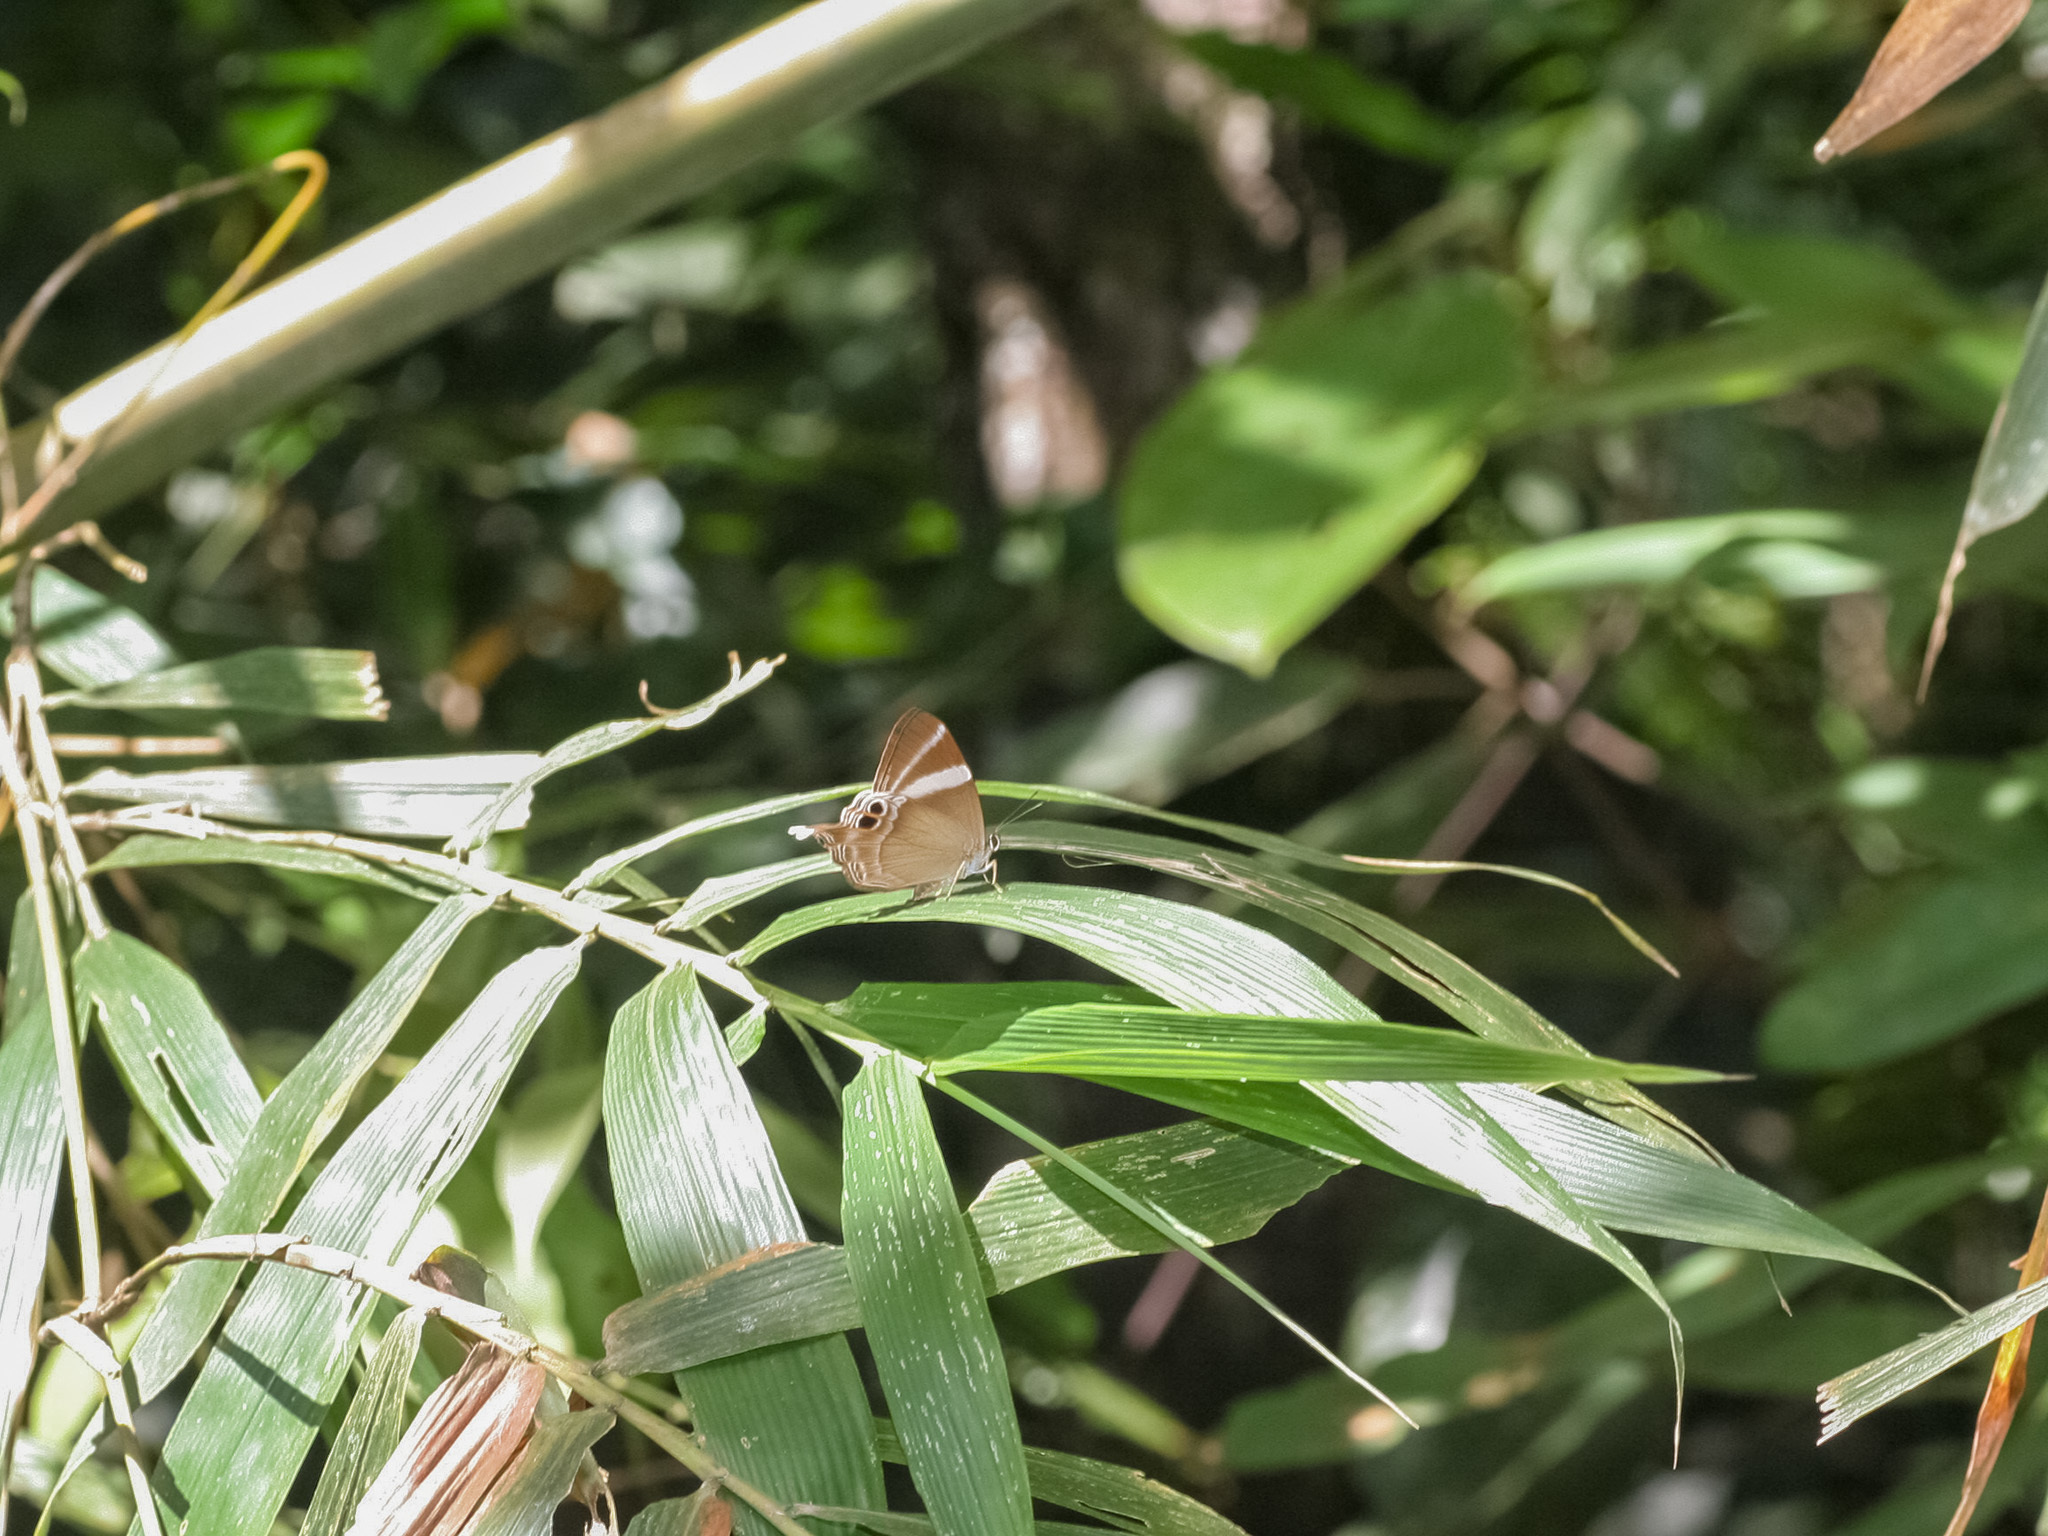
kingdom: Animalia
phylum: Arthropoda
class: Insecta
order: Lepidoptera
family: Lycaenidae
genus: Abisara
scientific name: Abisara neophron
